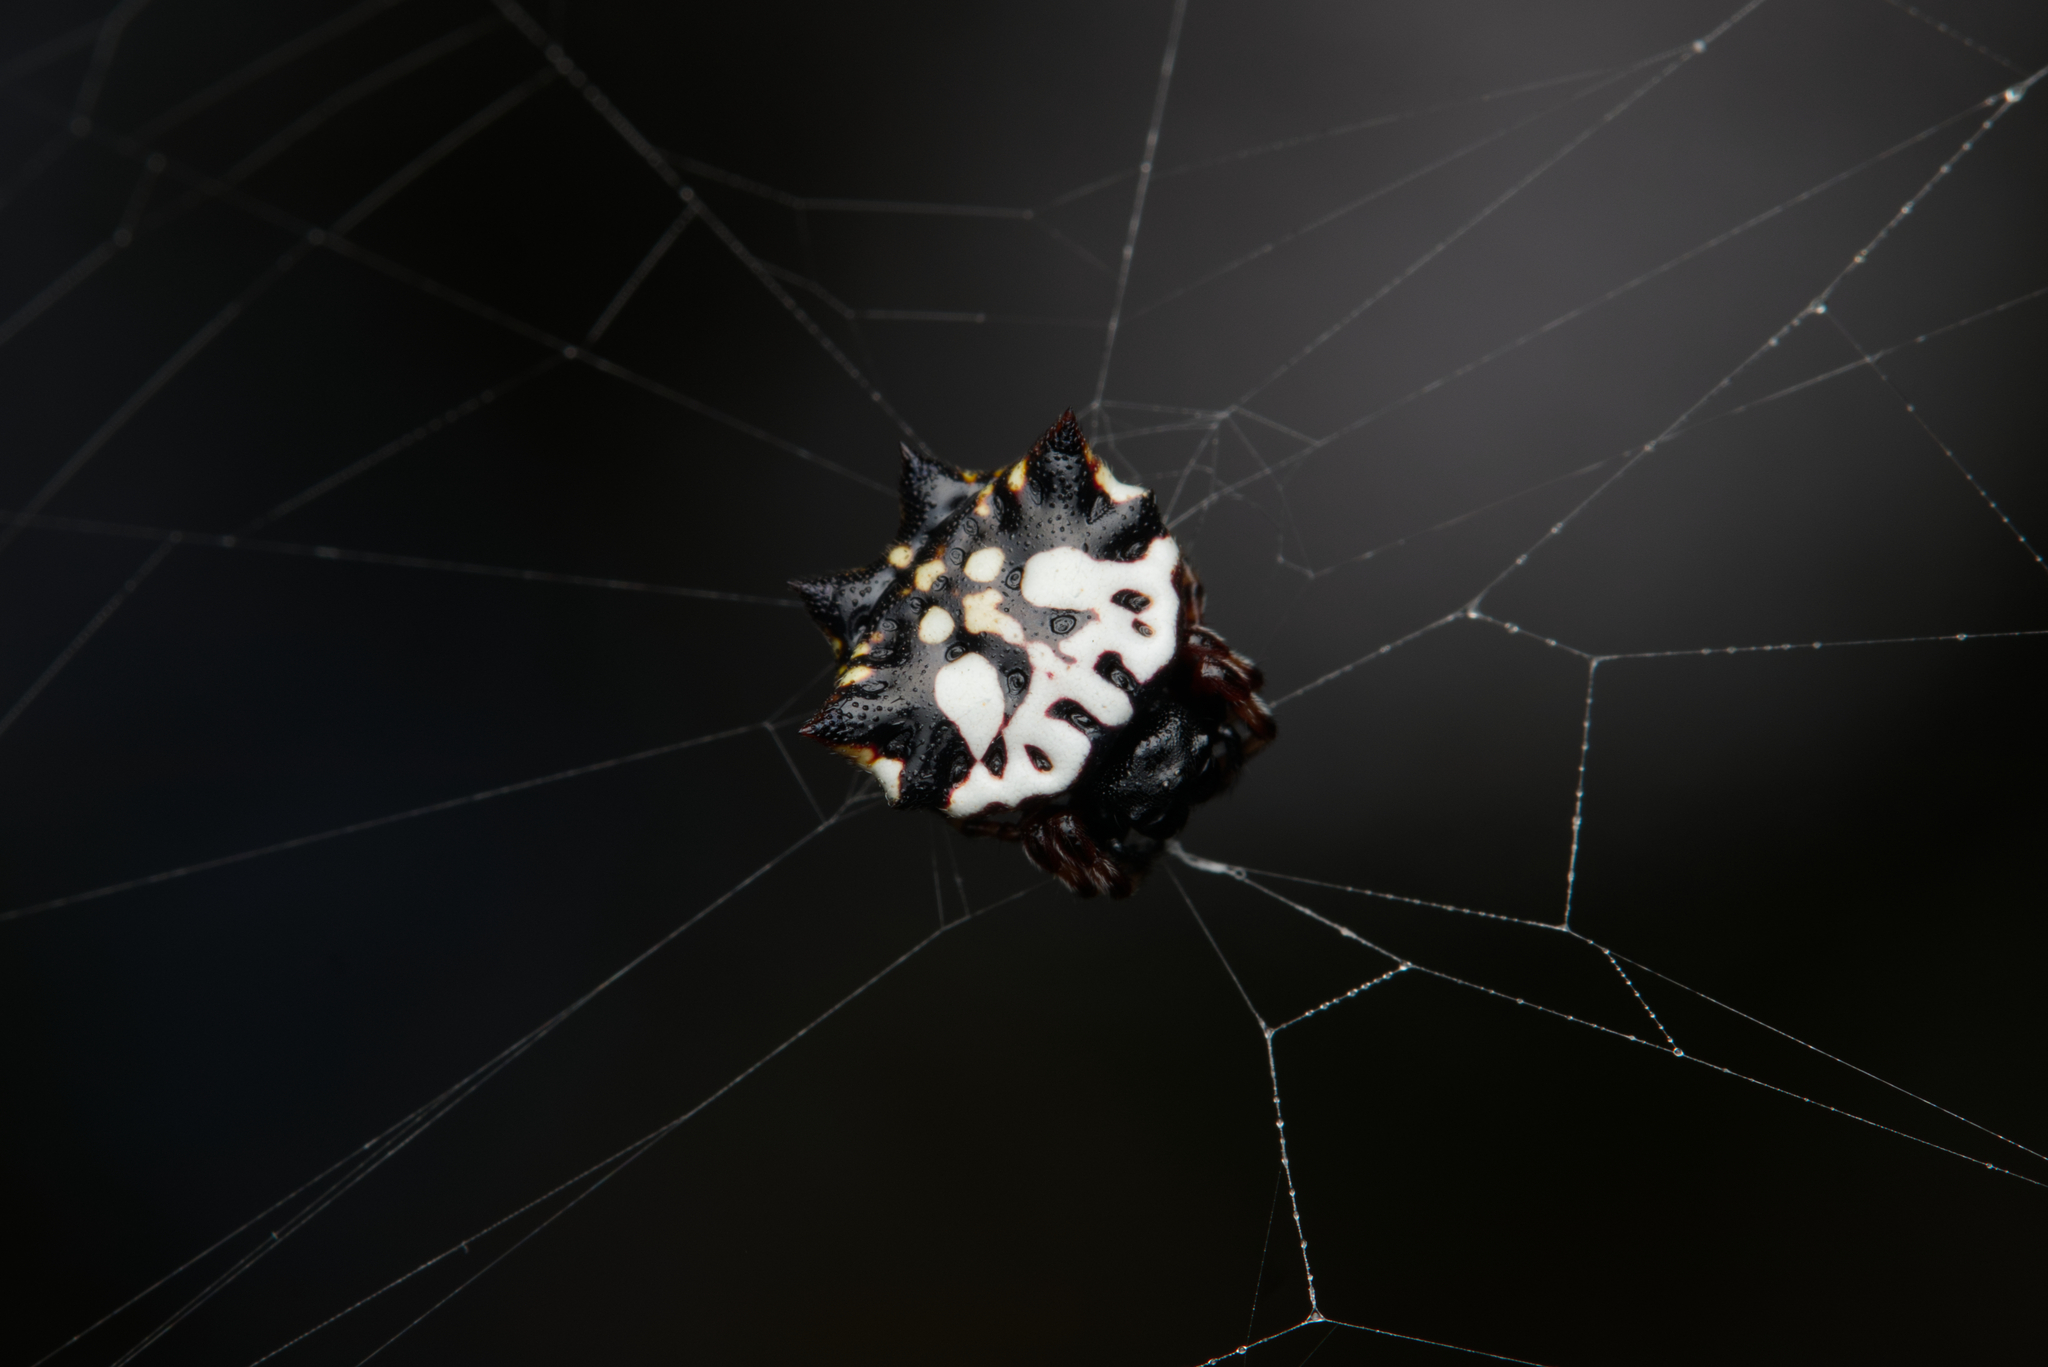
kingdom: Animalia
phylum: Arthropoda
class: Arachnida
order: Araneae
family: Araneidae
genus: Gasteracantha
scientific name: Gasteracantha sacerdotalis
